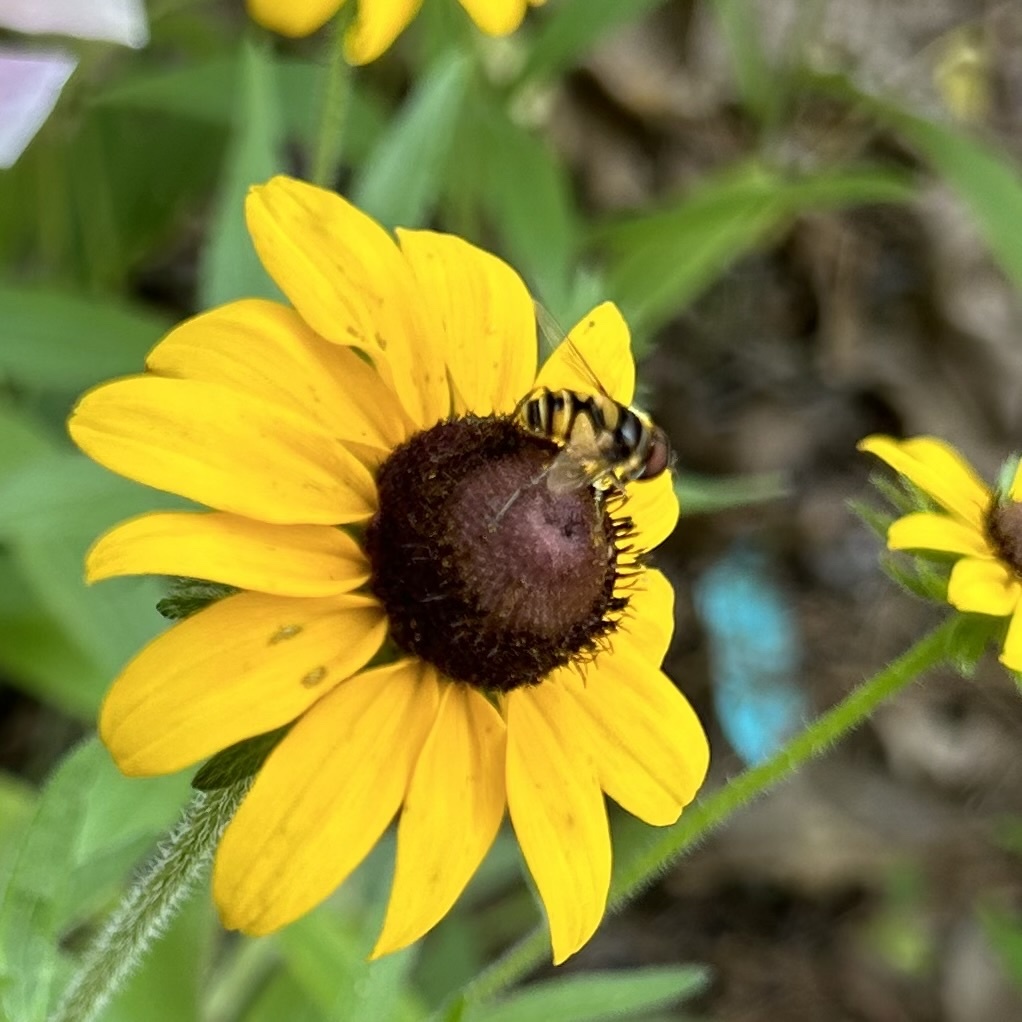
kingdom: Animalia
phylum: Arthropoda
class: Insecta
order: Diptera
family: Syrphidae
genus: Eristalis
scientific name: Eristalis transversa
